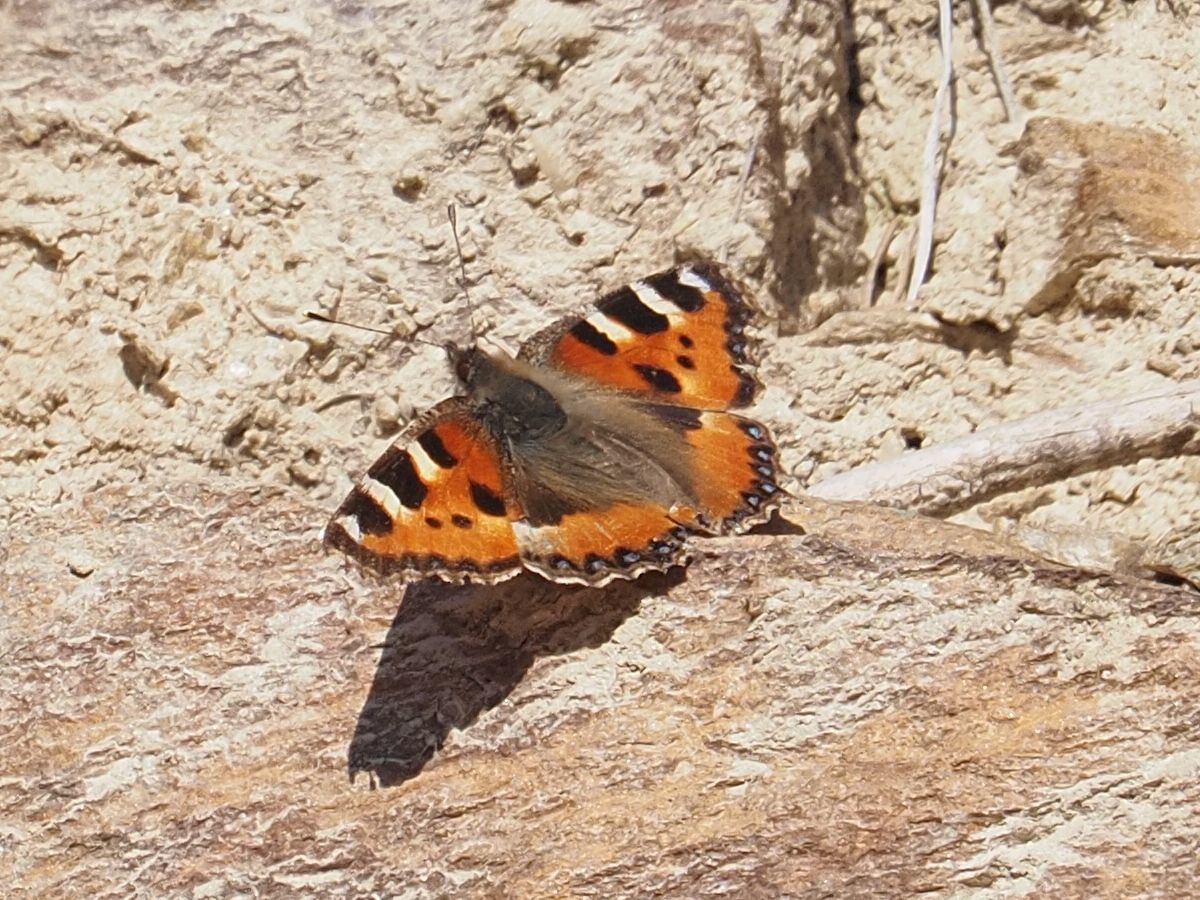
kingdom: Animalia
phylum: Arthropoda
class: Insecta
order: Lepidoptera
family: Nymphalidae
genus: Aglais
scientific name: Aglais urticae
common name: Small tortoiseshell
